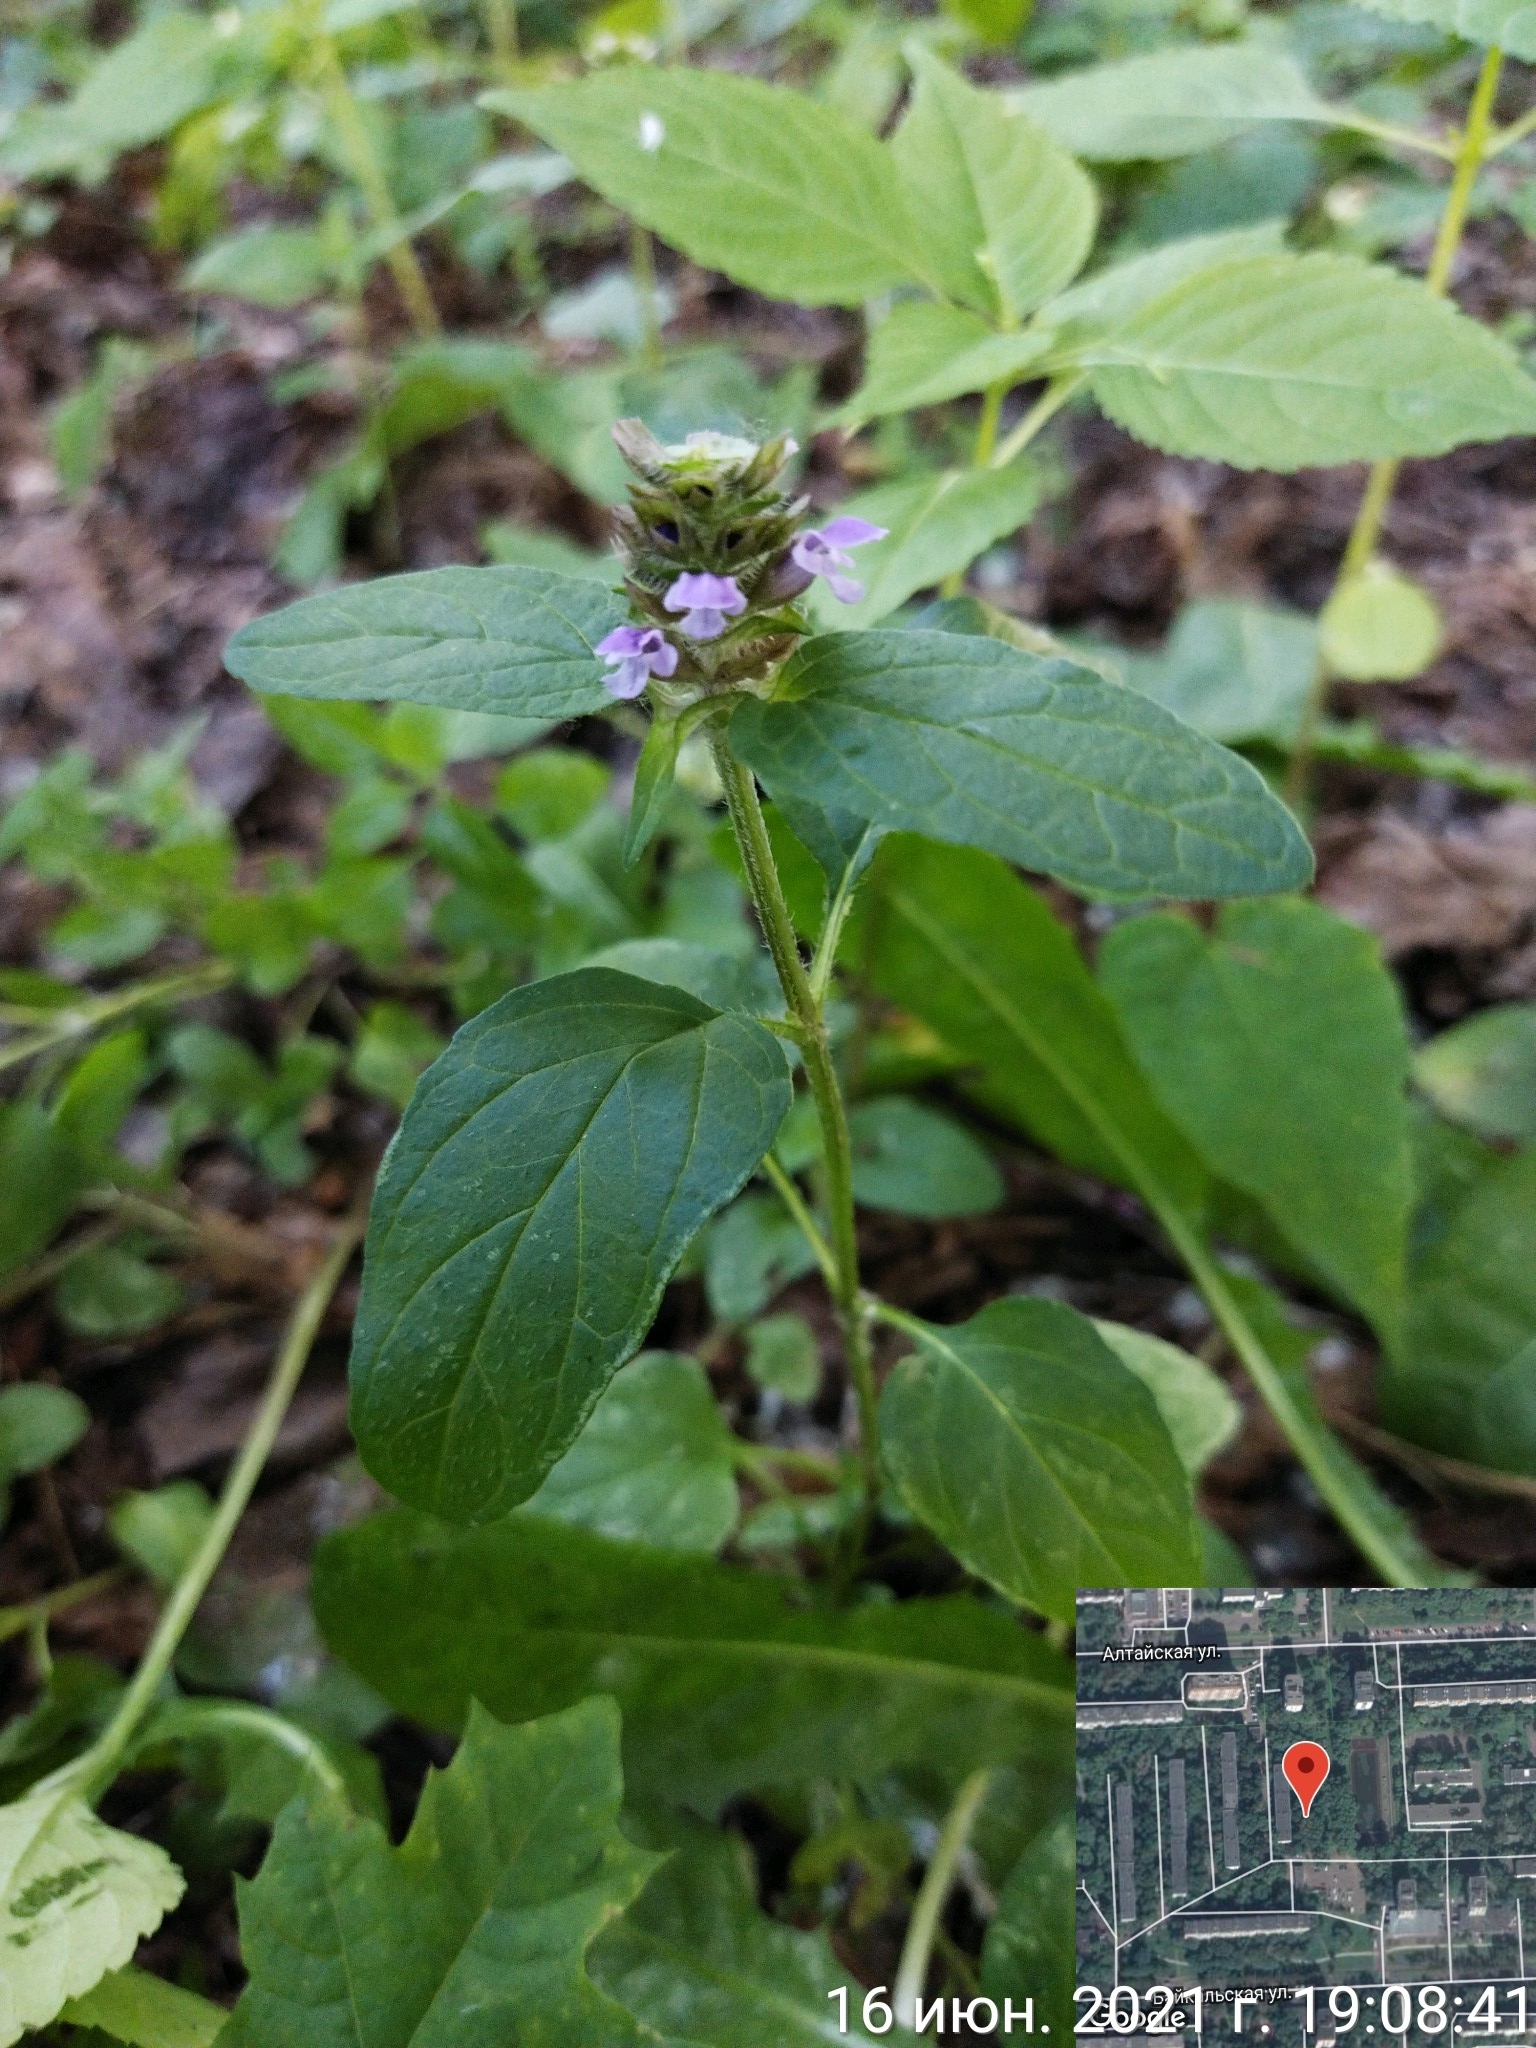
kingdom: Plantae
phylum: Tracheophyta
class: Magnoliopsida
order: Lamiales
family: Lamiaceae
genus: Prunella
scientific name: Prunella vulgaris
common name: Heal-all
